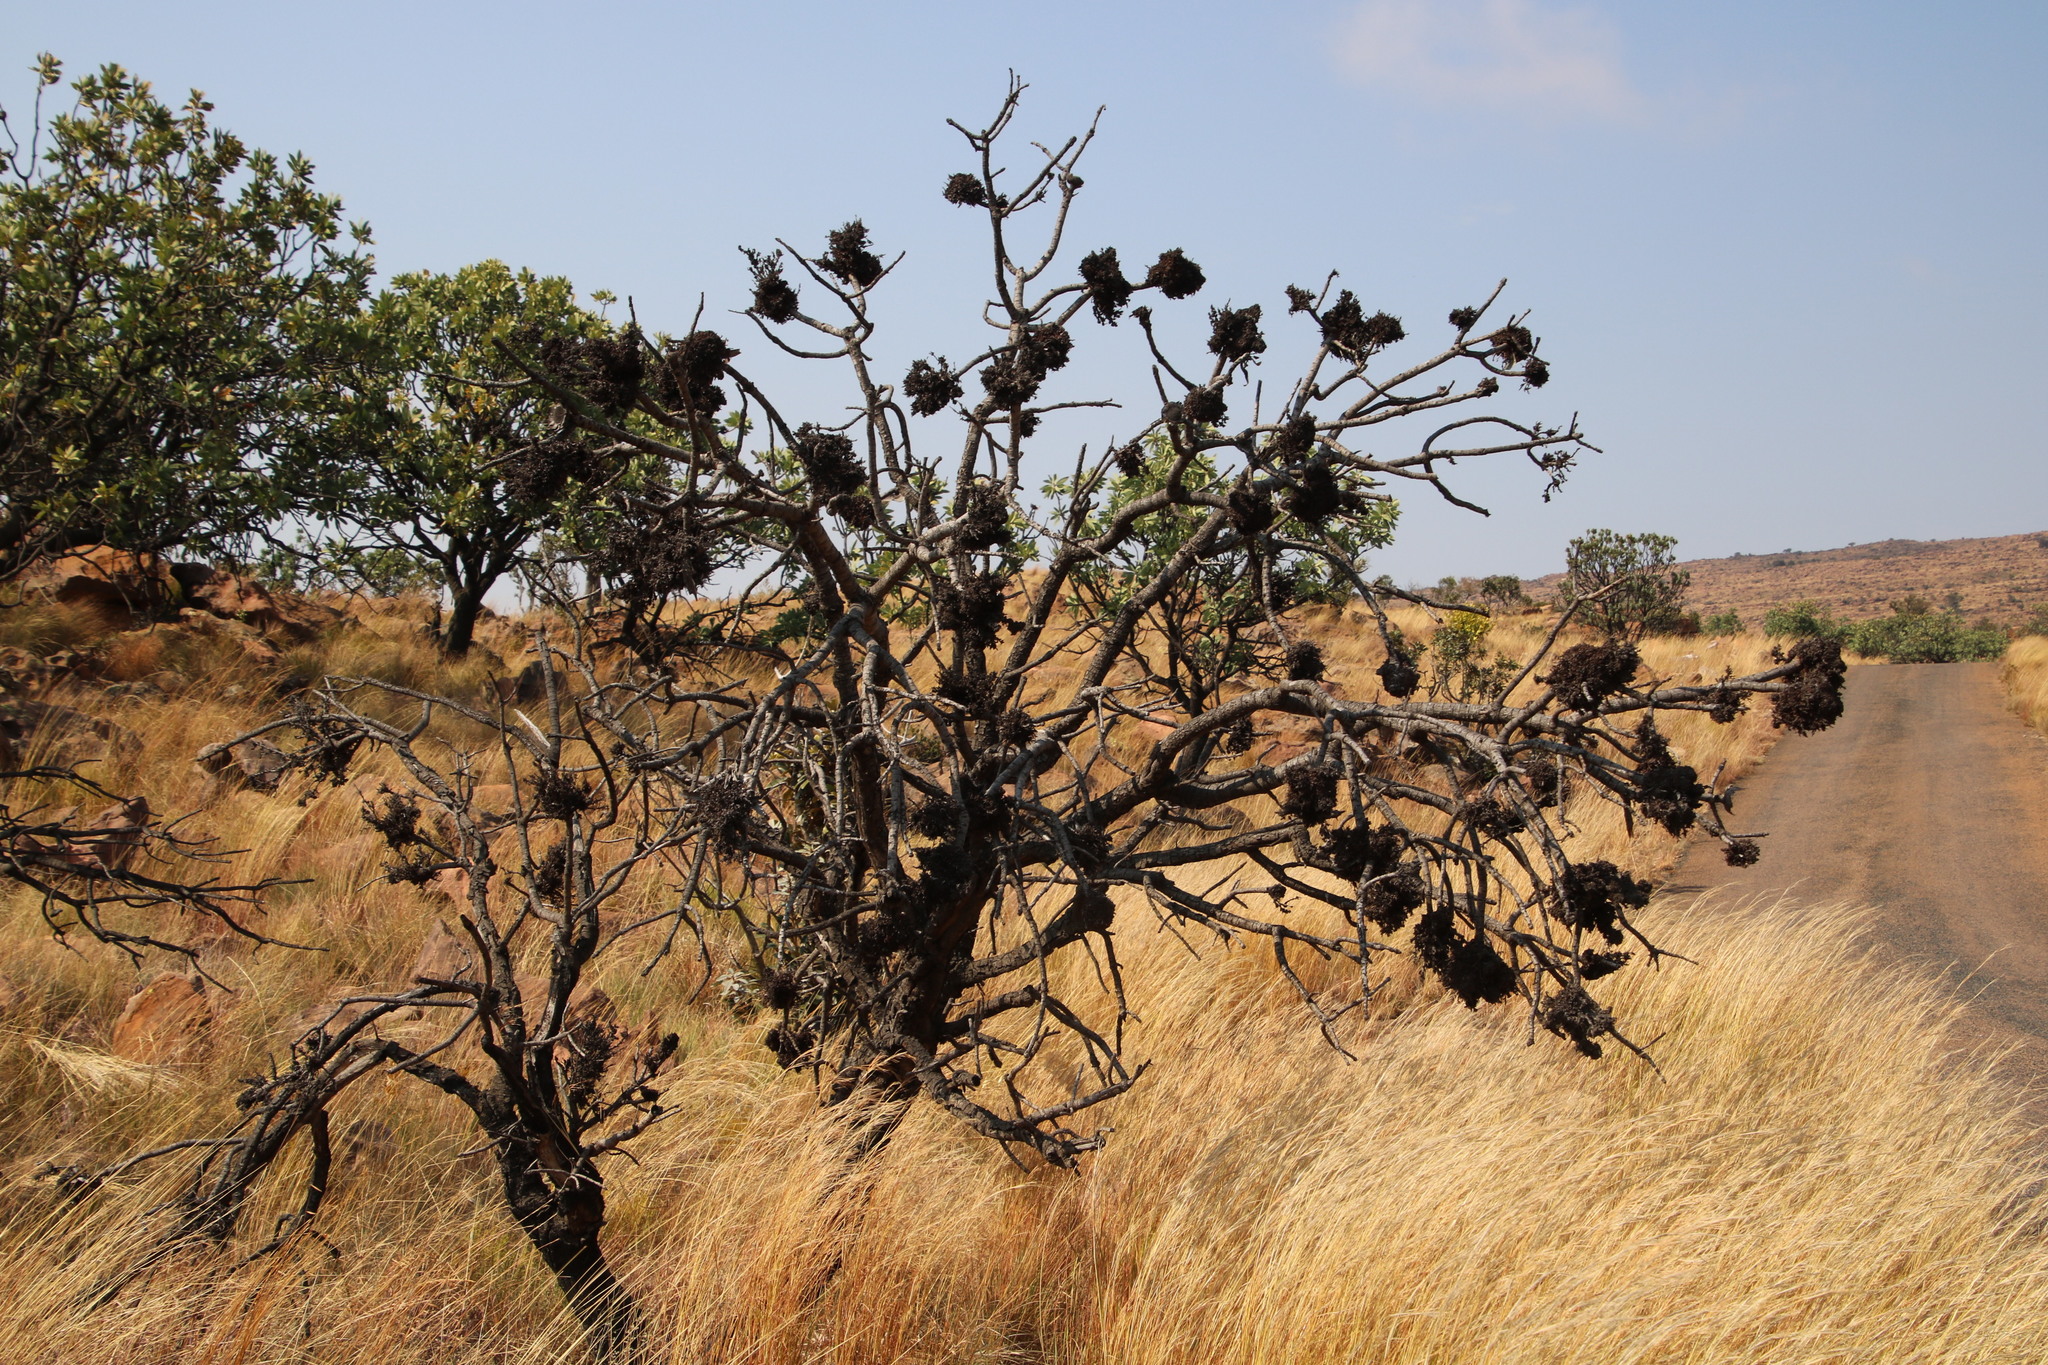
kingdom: Bacteria
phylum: Firmicutes
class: Bacilli
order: Acholeplasmatales
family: Acholeplasmataceae
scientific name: Acholeplasmataceae
